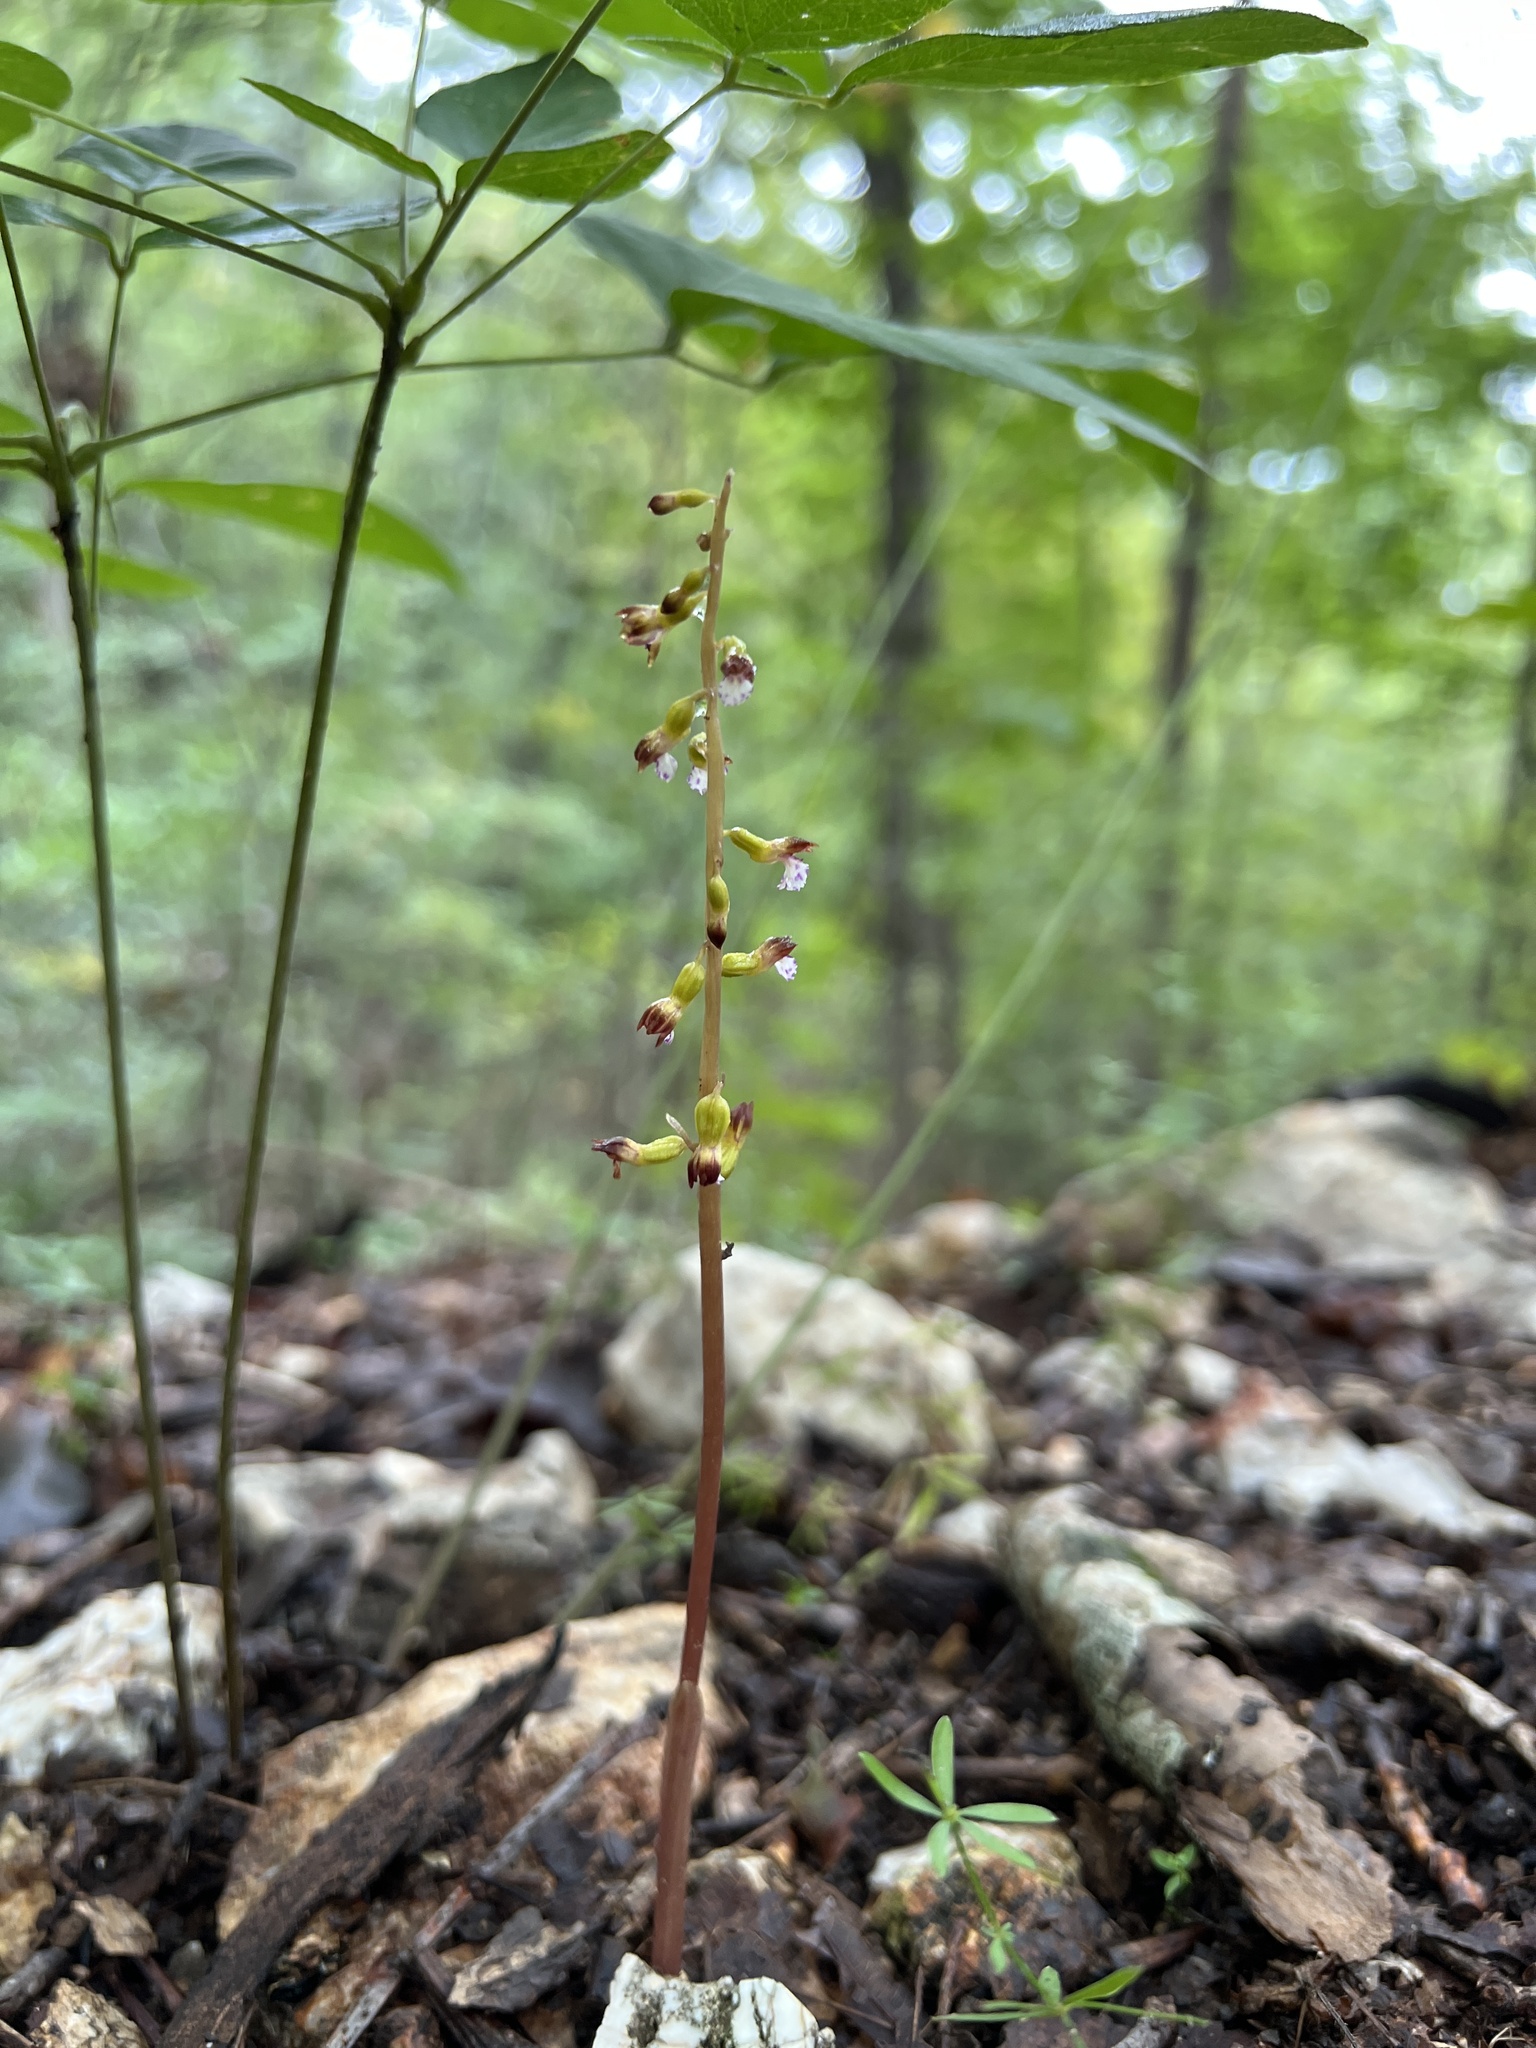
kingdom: Plantae
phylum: Tracheophyta
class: Liliopsida
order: Asparagales
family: Orchidaceae
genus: Corallorhiza
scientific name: Corallorhiza odontorhiza
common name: Autumn coralroot
